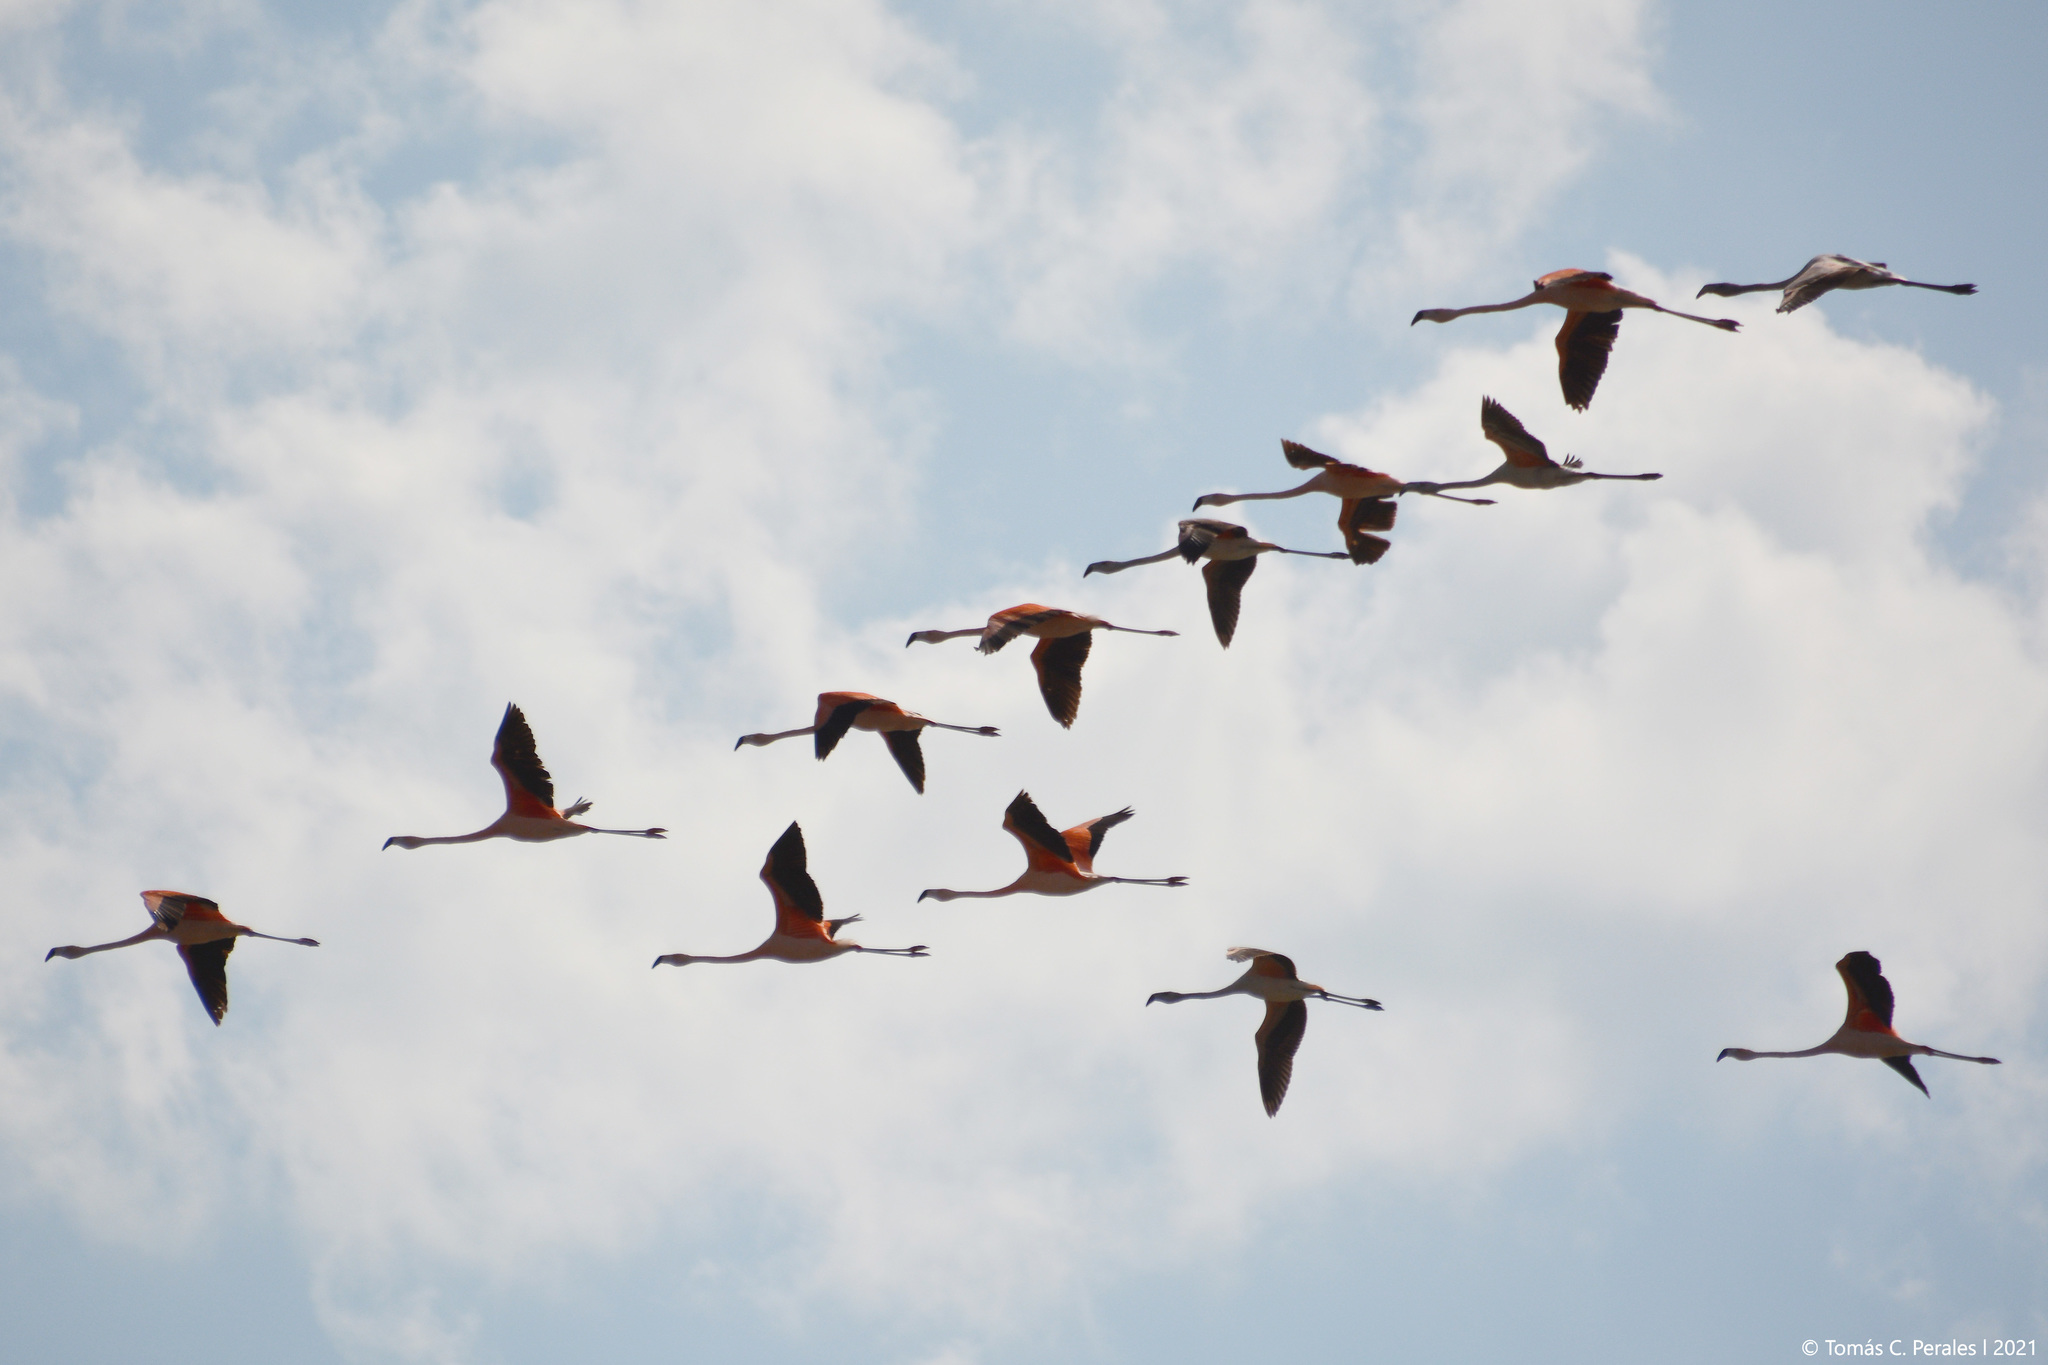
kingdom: Animalia
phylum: Chordata
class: Aves
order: Phoenicopteriformes
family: Phoenicopteridae
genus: Phoenicopterus
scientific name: Phoenicopterus chilensis
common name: Chilean flamingo
